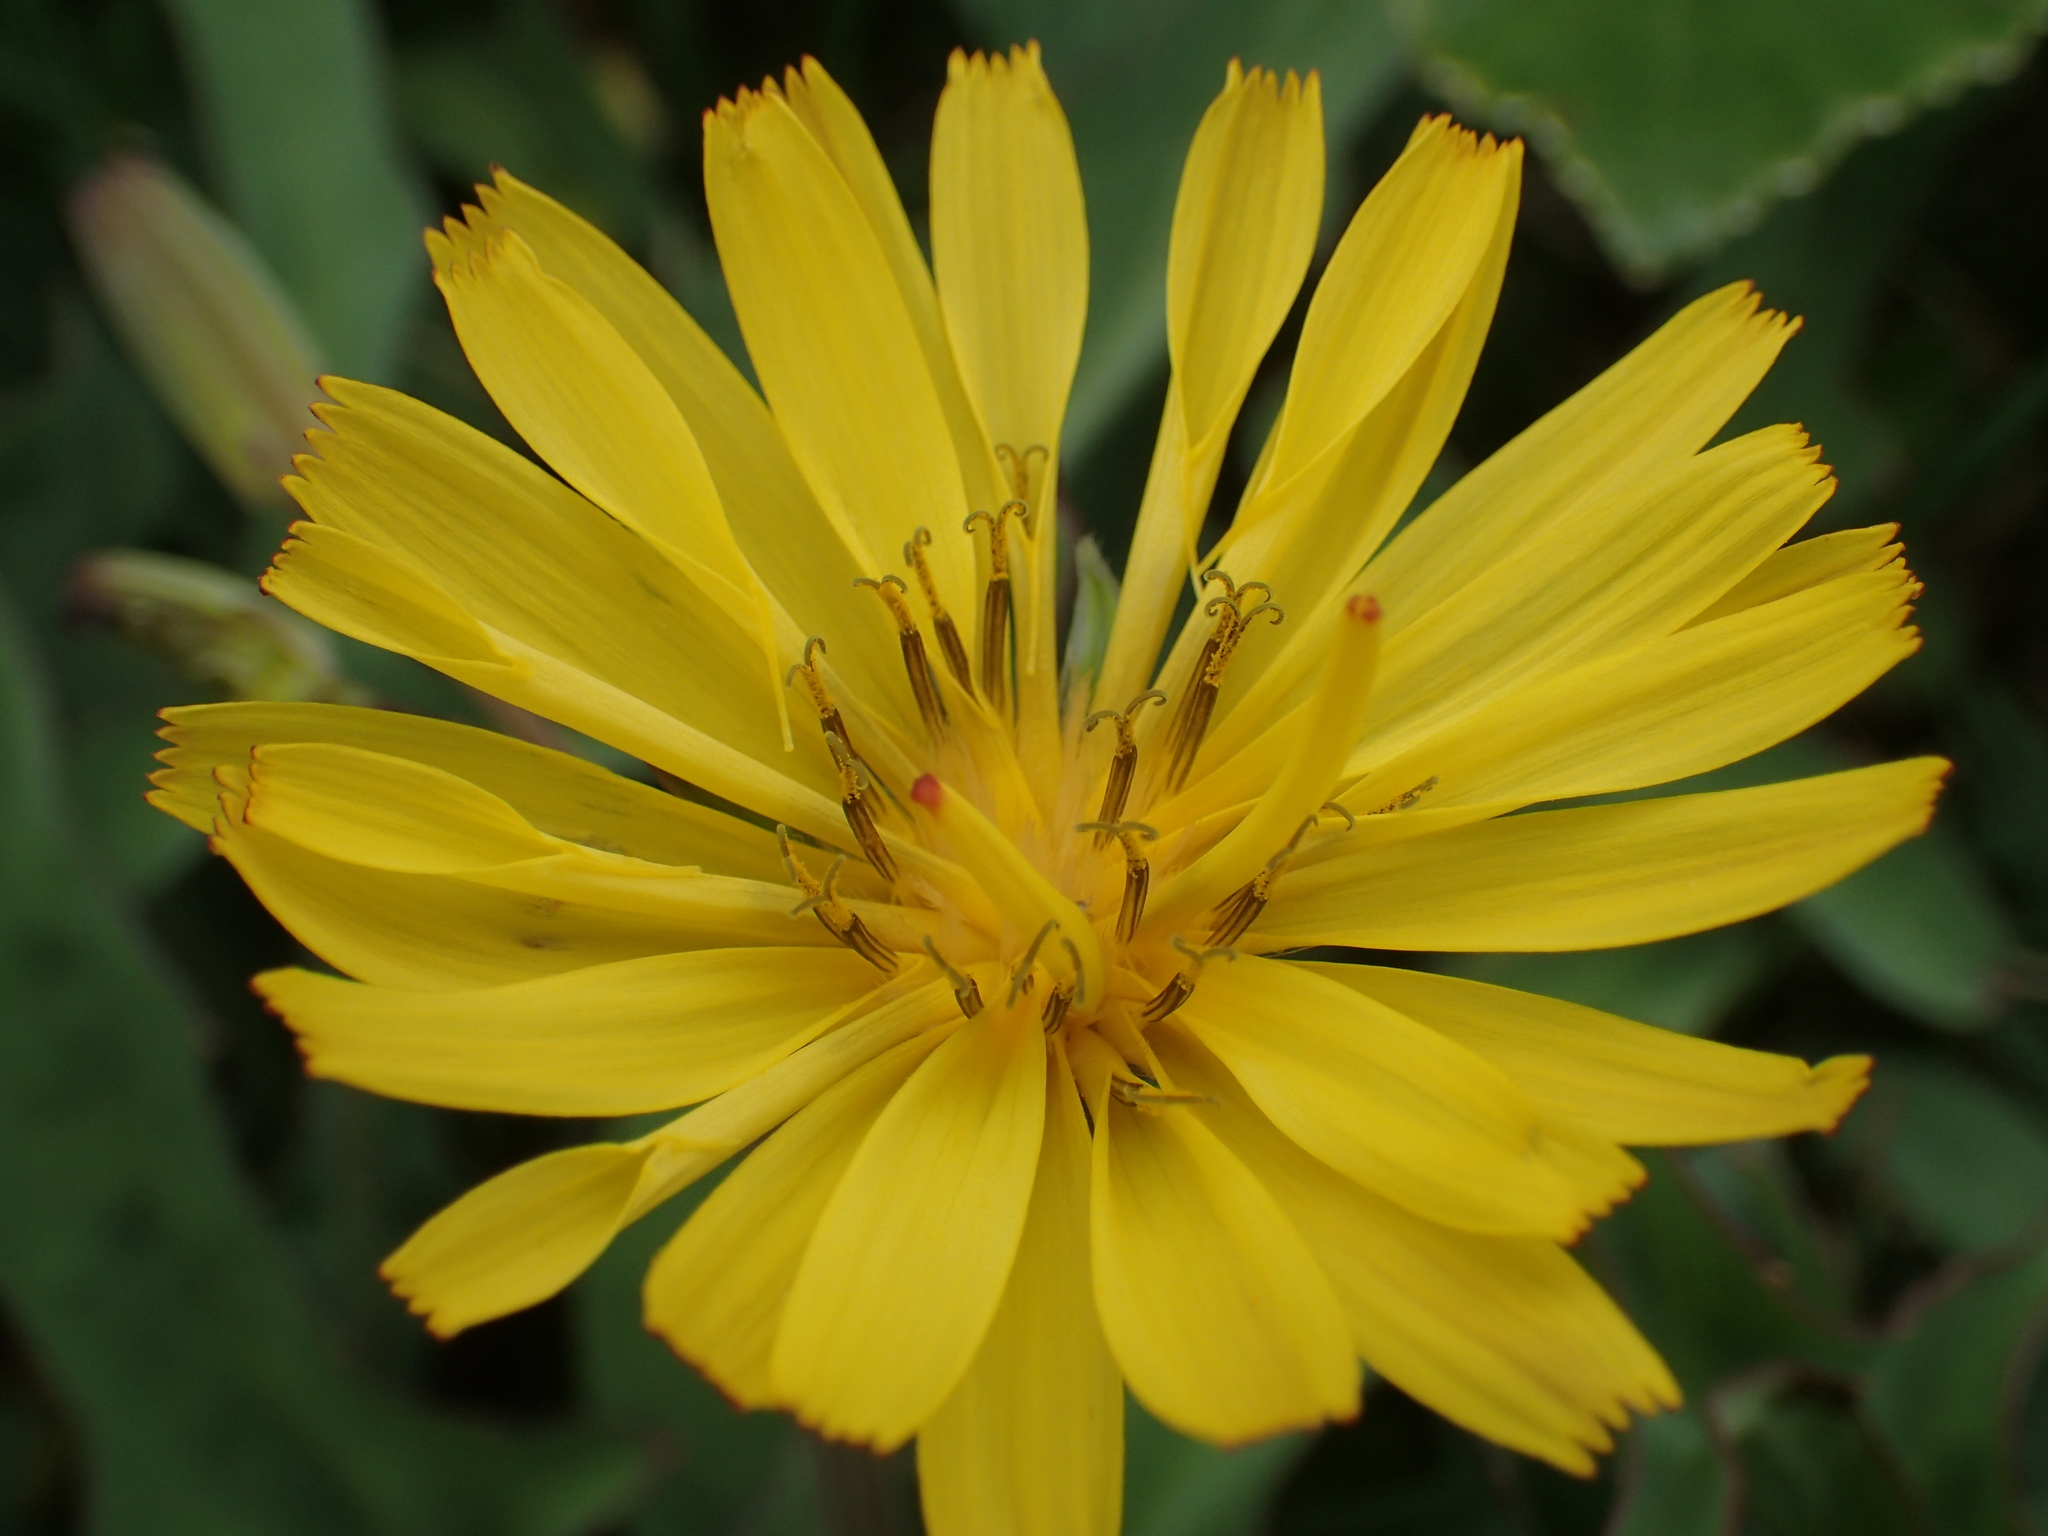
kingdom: Plantae
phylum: Tracheophyta
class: Magnoliopsida
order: Asterales
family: Asteraceae
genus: Ixeris
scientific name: Ixeris japonica
